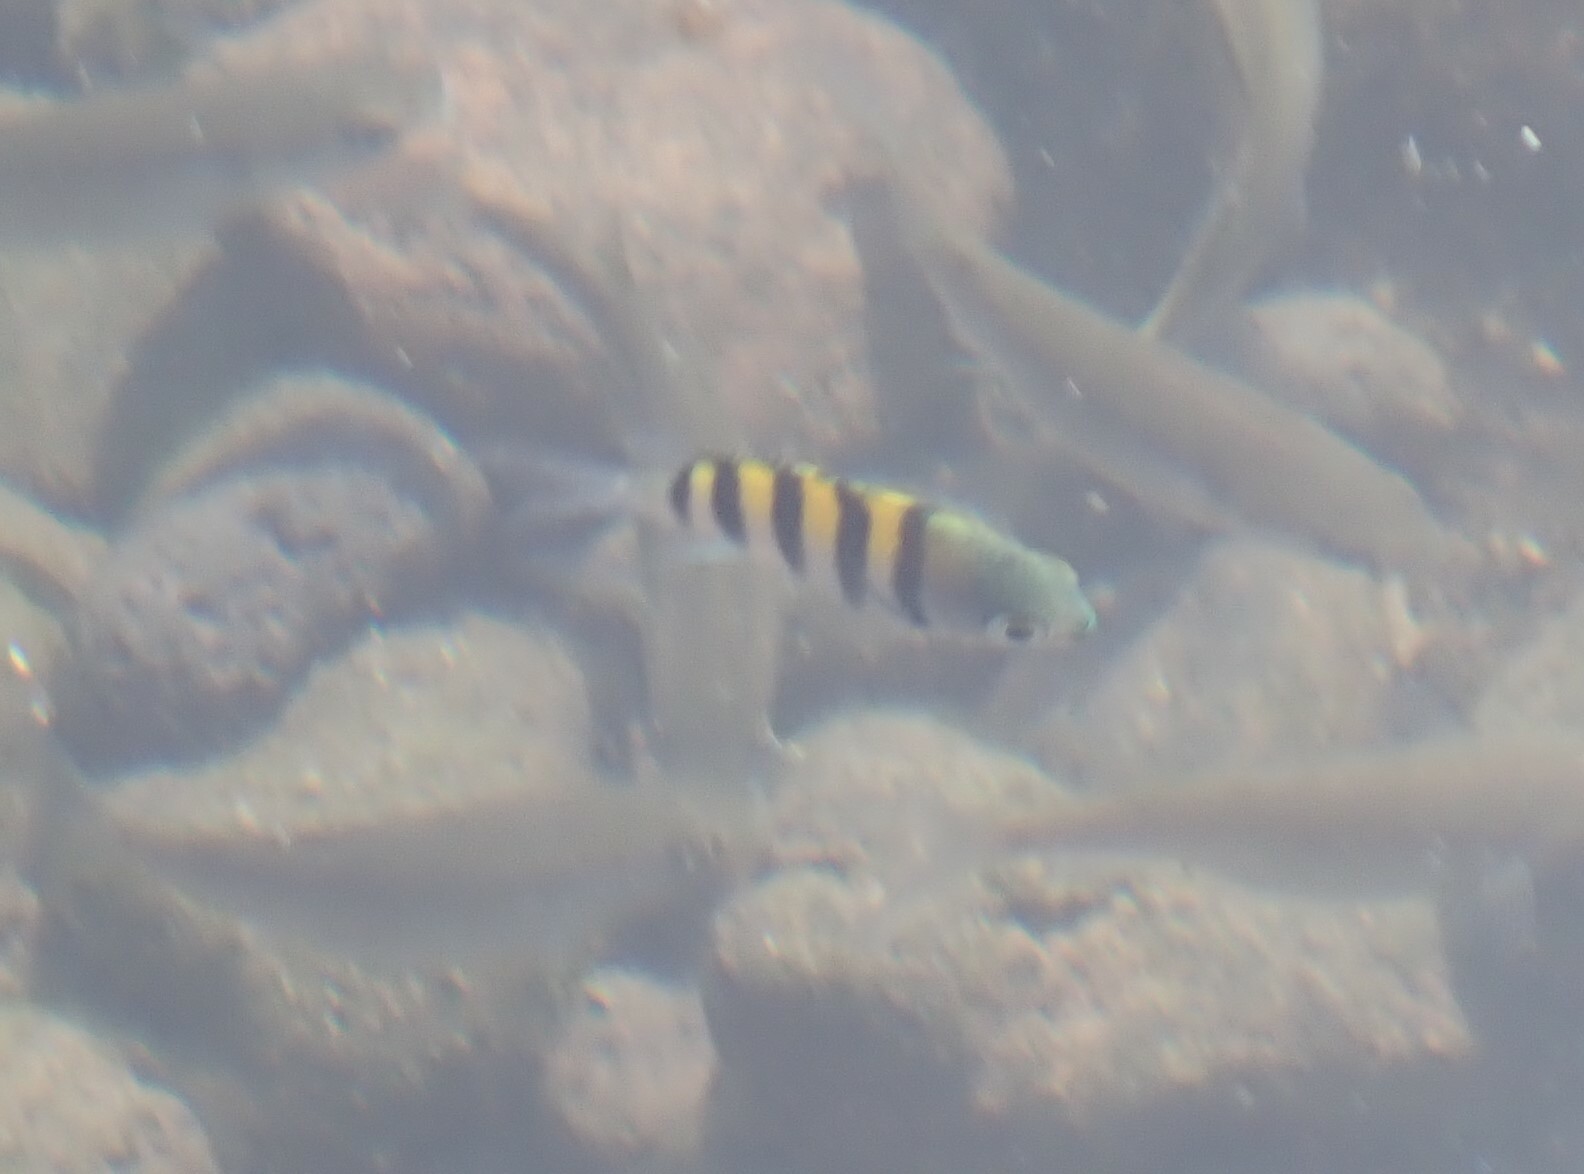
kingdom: Animalia
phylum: Chordata
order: Perciformes
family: Pomacentridae
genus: Abudefduf
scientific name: Abudefduf saxatilis
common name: Sergeant major
